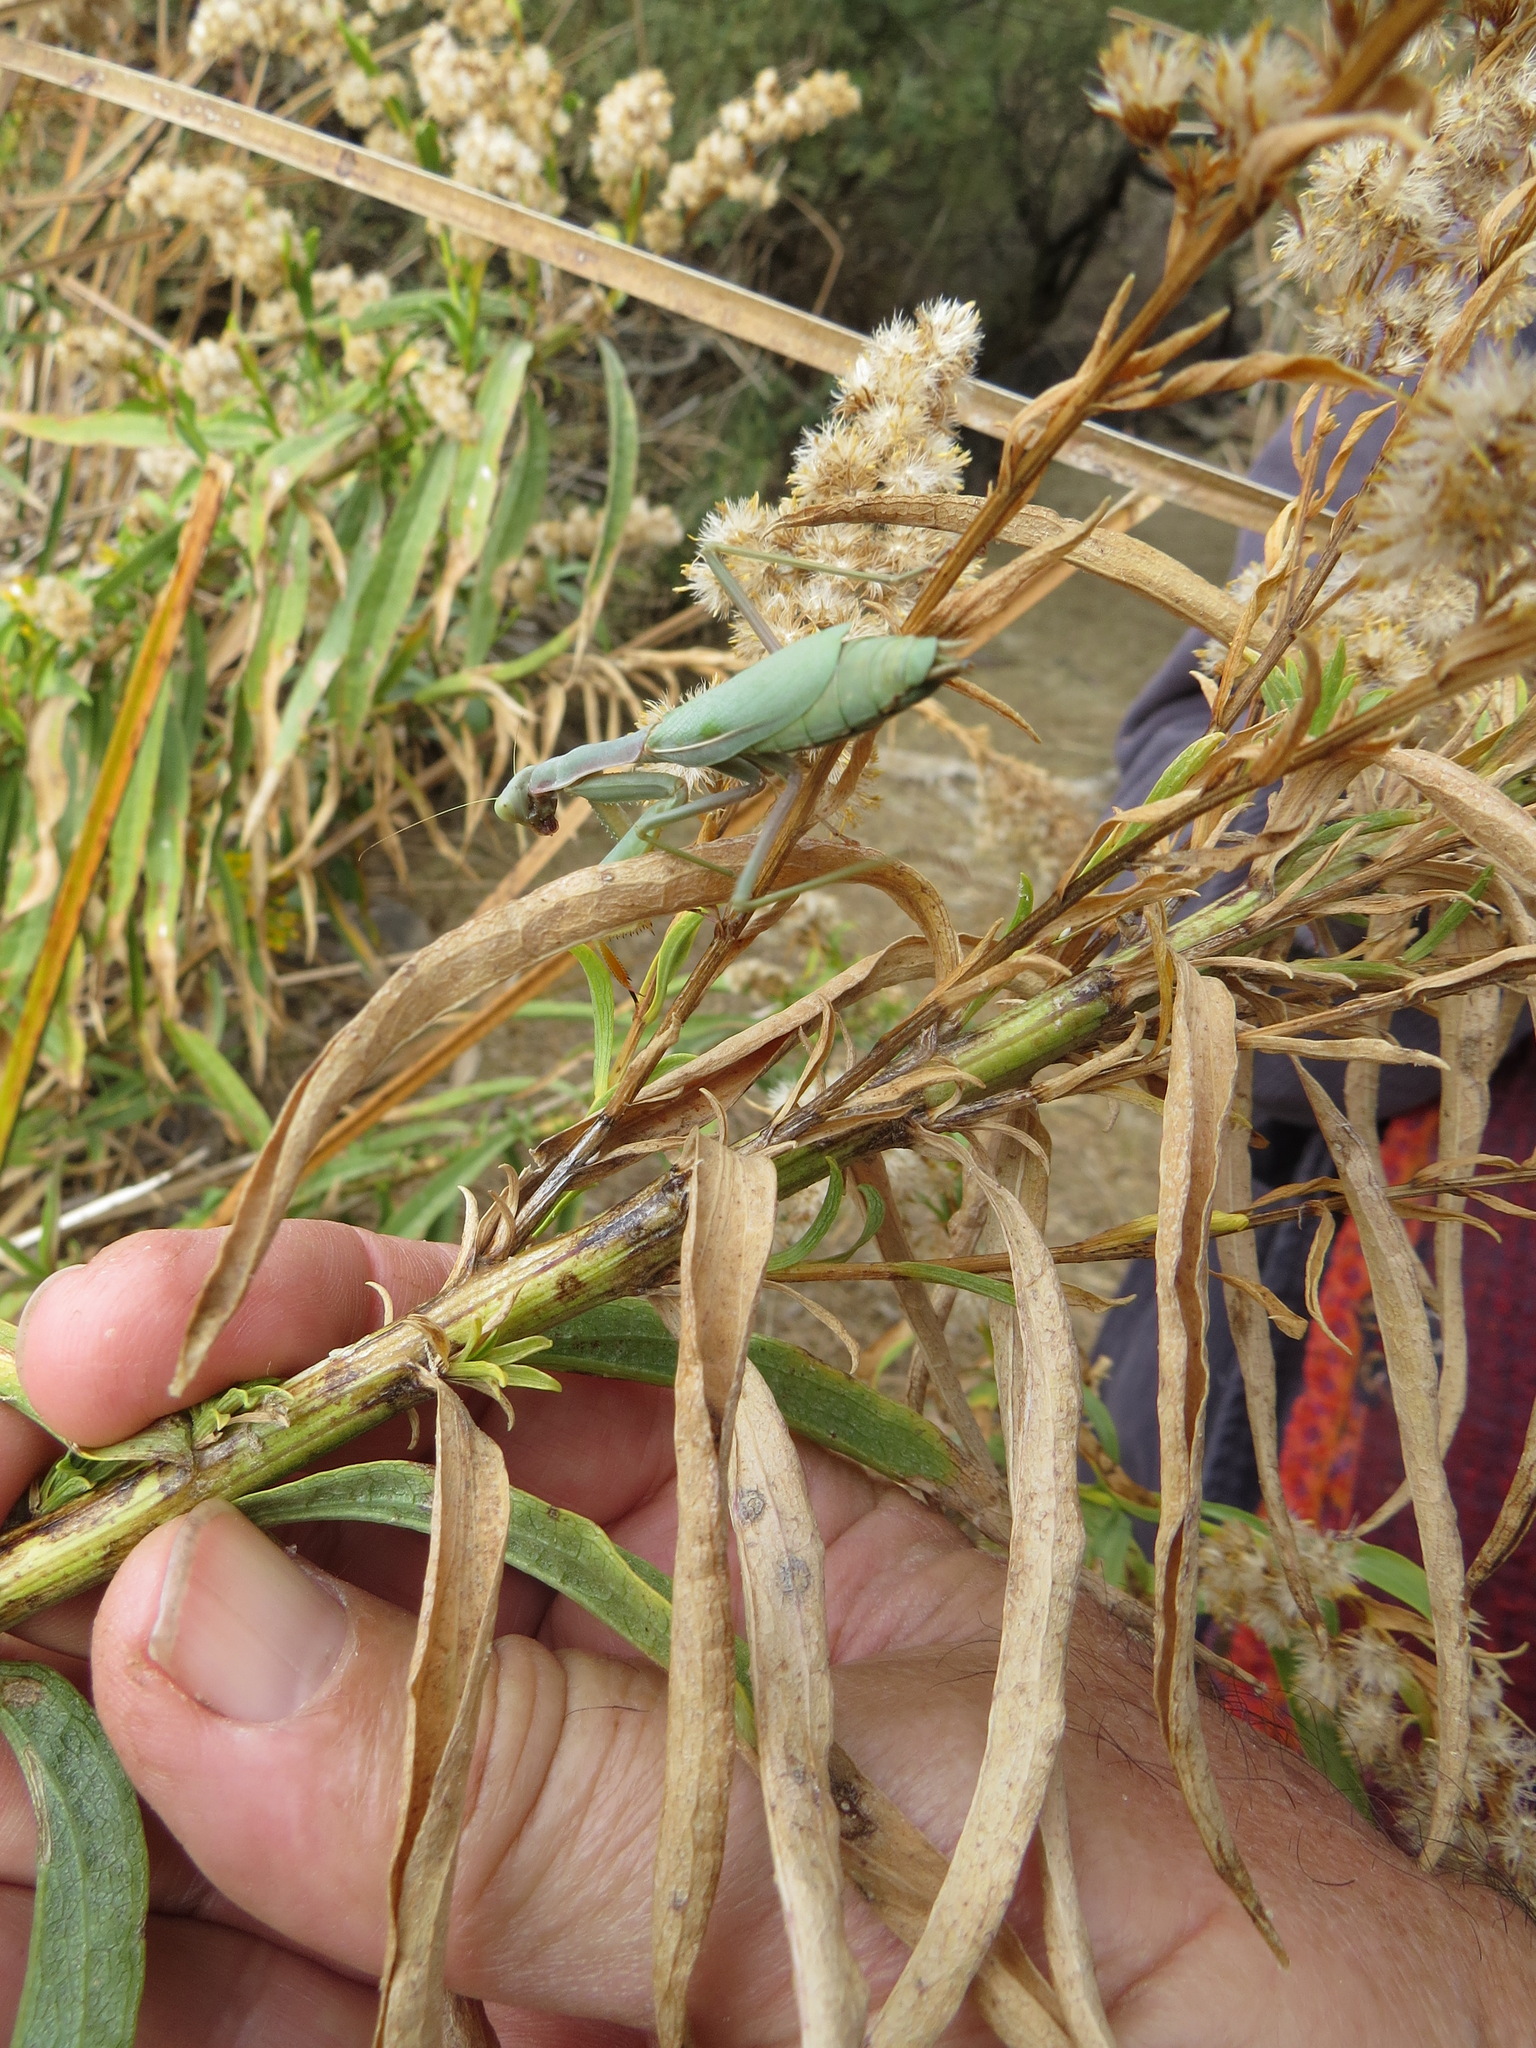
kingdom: Animalia
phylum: Arthropoda
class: Insecta
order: Mantodea
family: Eremiaphilidae
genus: Iris
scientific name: Iris oratoria
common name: Mediterranean mantis
